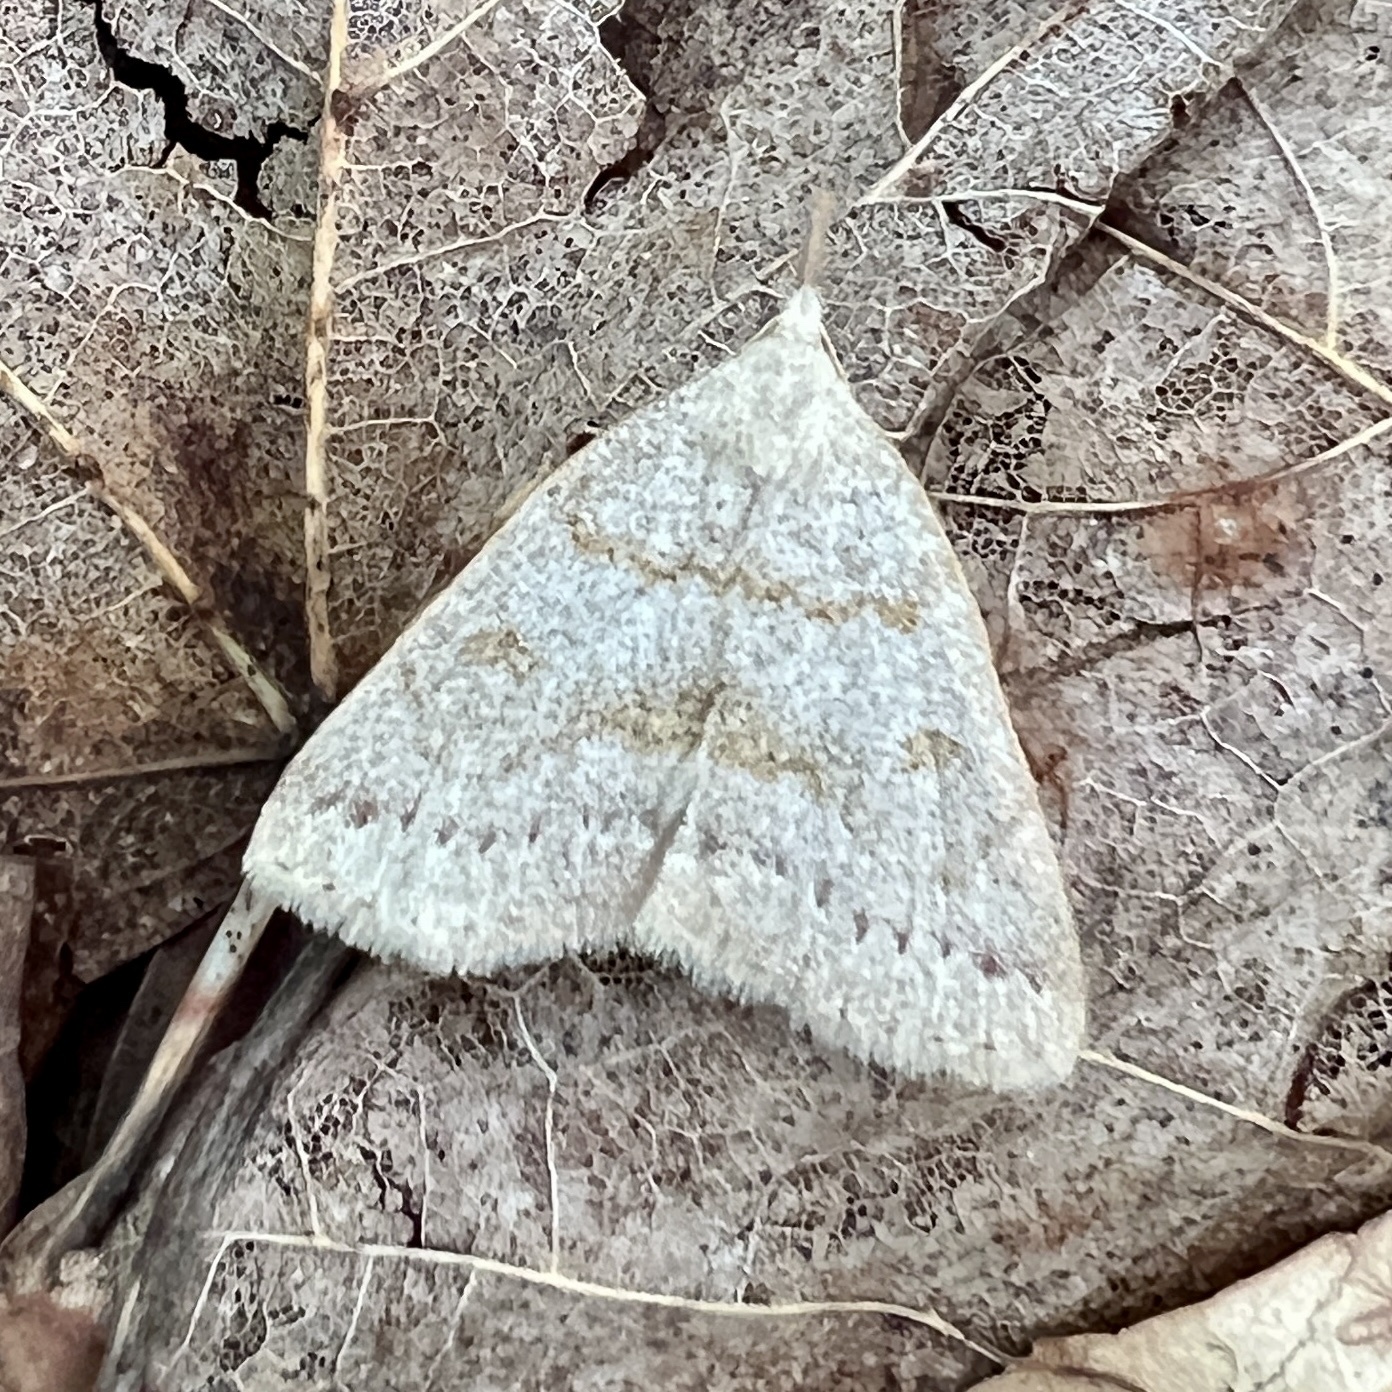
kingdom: Animalia
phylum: Arthropoda
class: Insecta
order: Lepidoptera
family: Erebidae
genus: Macrochilo
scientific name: Macrochilo morbidalis
